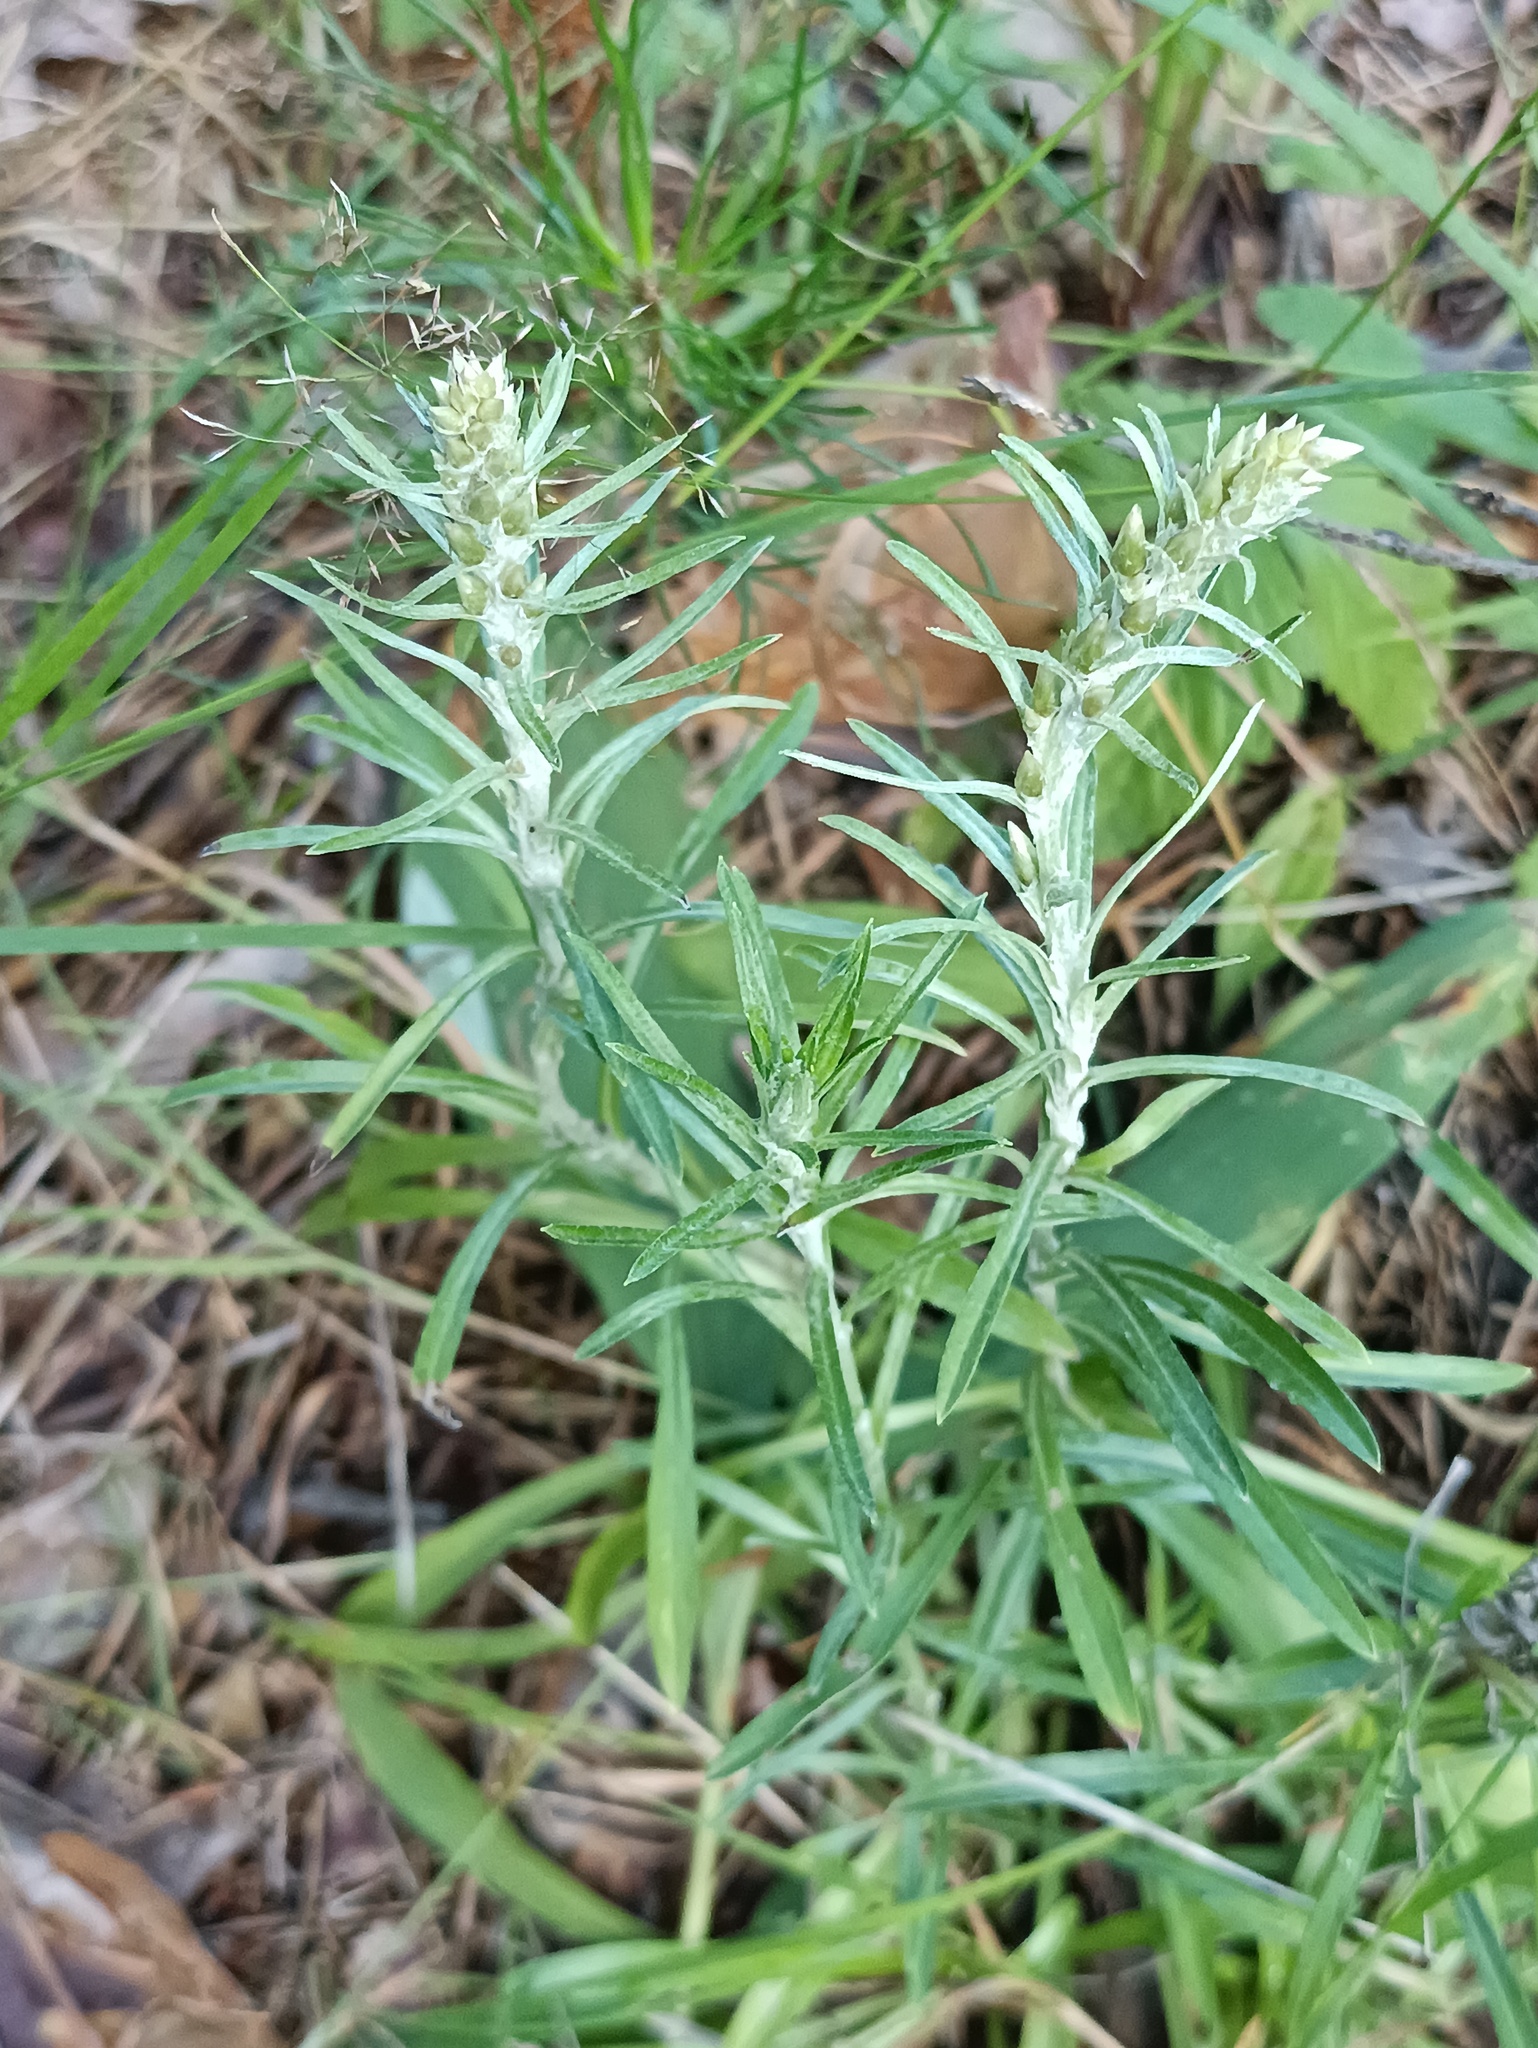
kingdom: Plantae
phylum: Tracheophyta
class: Magnoliopsida
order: Asterales
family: Asteraceae
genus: Omalotheca
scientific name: Omalotheca sylvatica
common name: Heath cudweed
